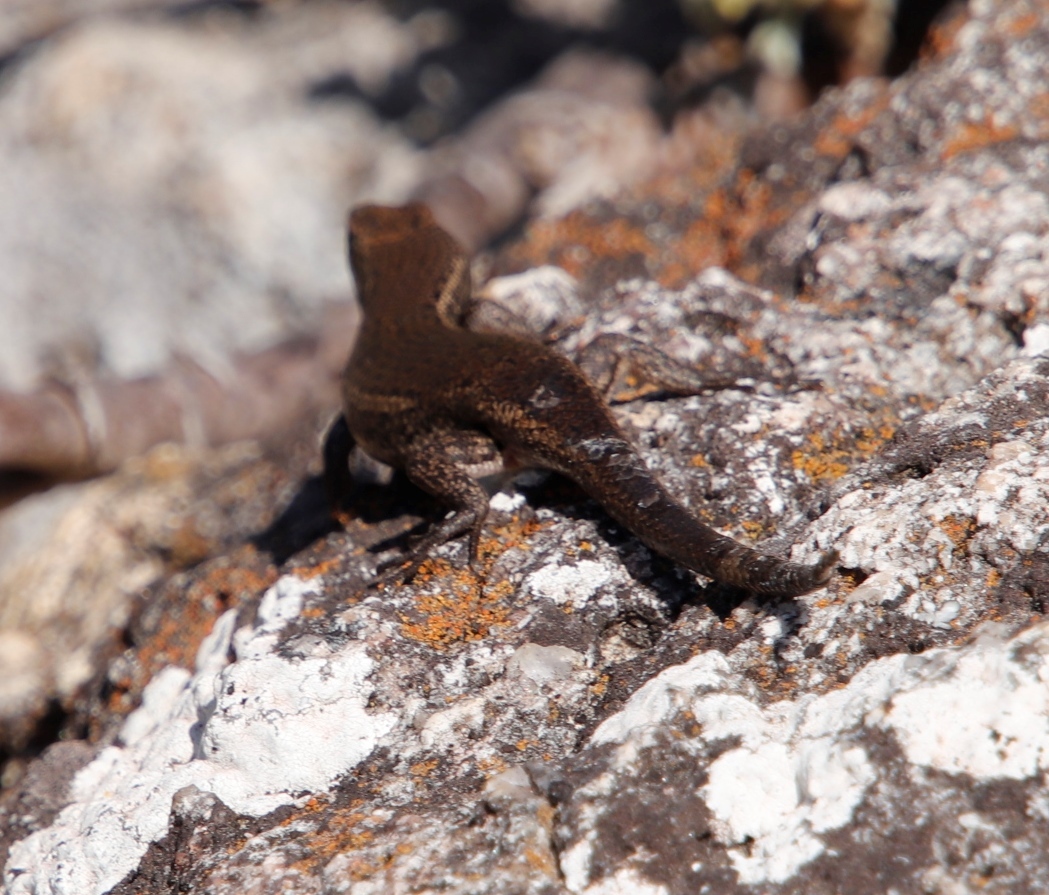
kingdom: Animalia
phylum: Chordata
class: Squamata
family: Scincidae
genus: Trachylepis
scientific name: Trachylepis variegata
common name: Variegated skink
